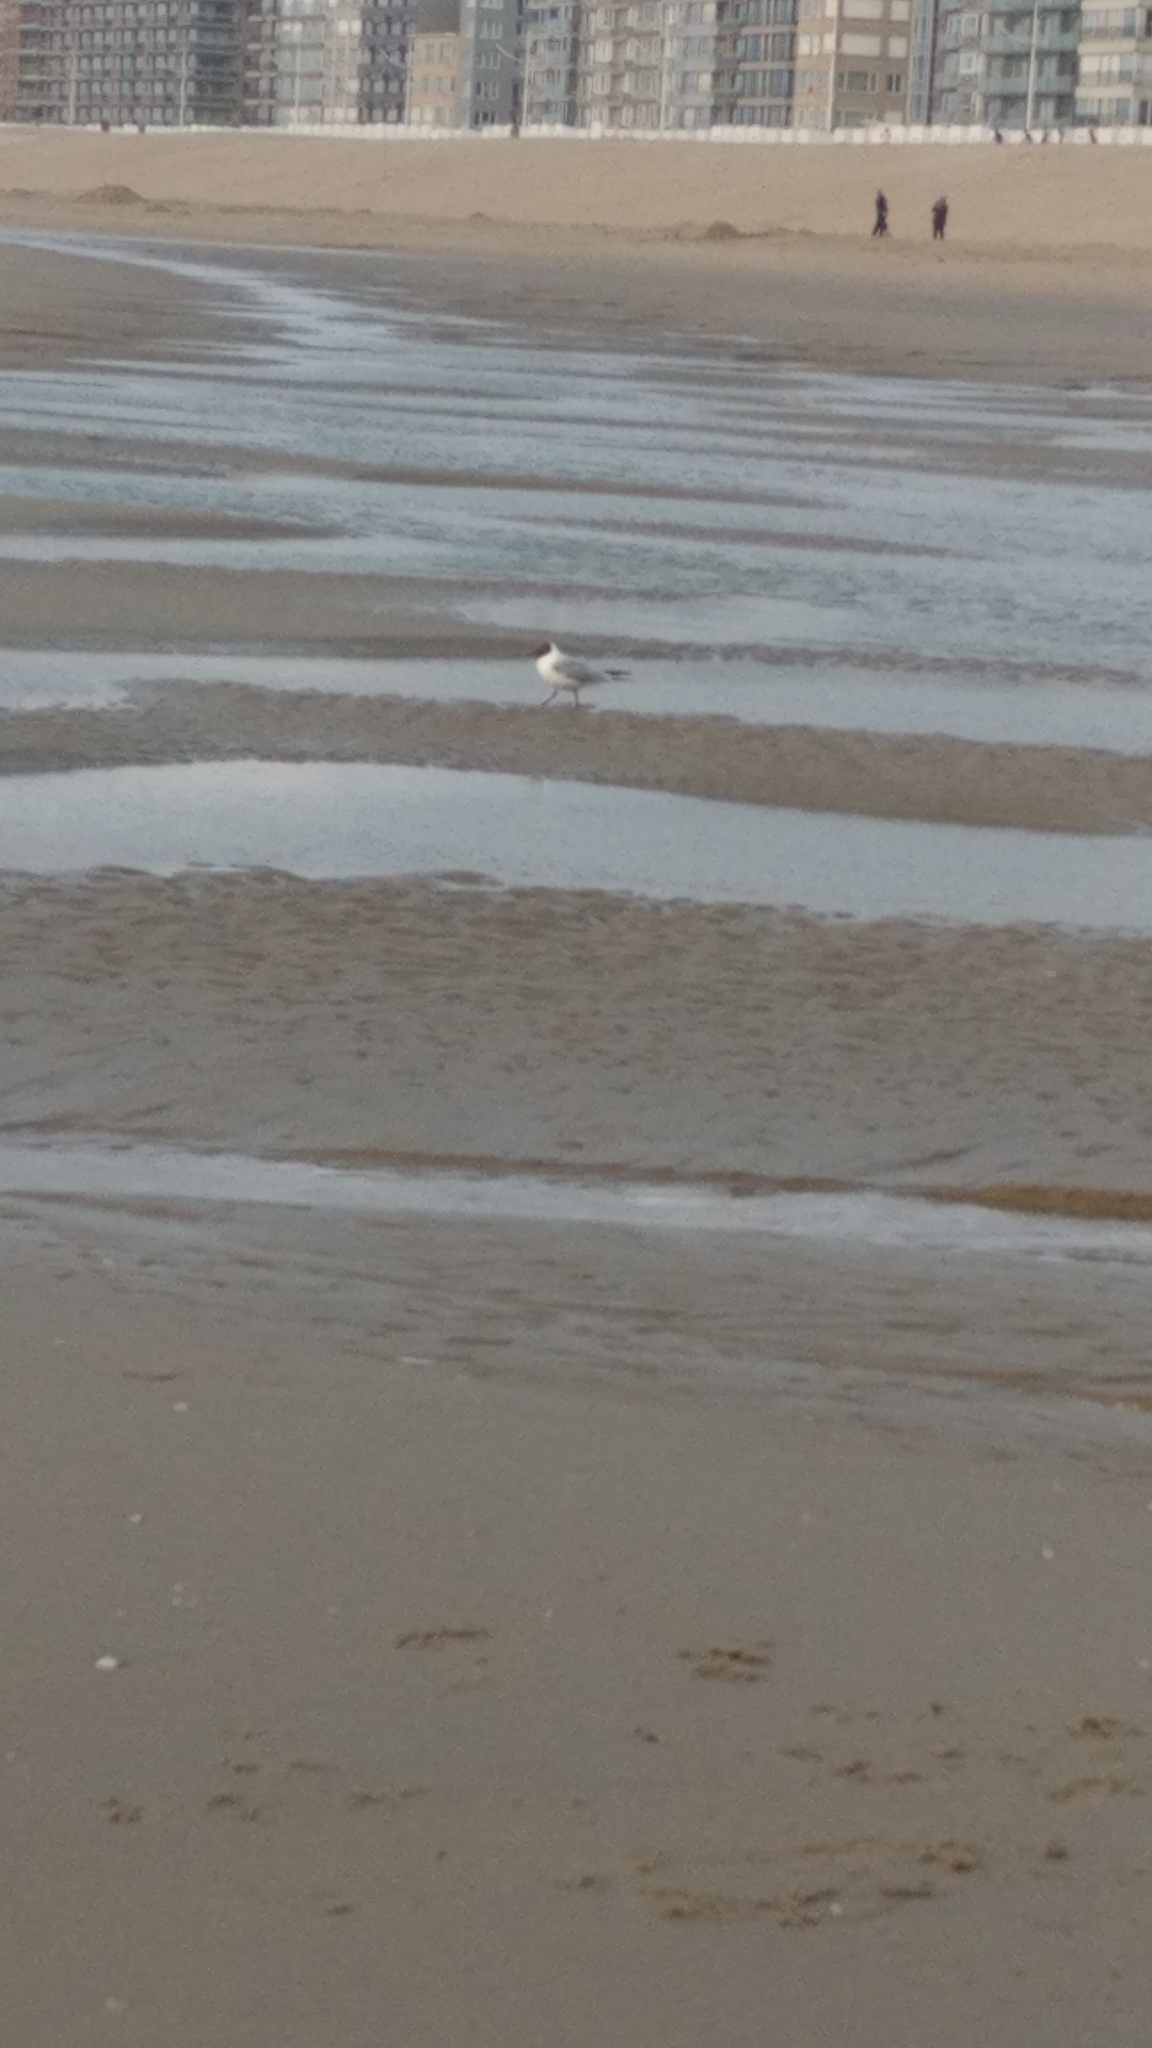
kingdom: Animalia
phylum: Chordata
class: Aves
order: Charadriiformes
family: Laridae
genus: Chroicocephalus
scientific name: Chroicocephalus ridibundus
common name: Black-headed gull
